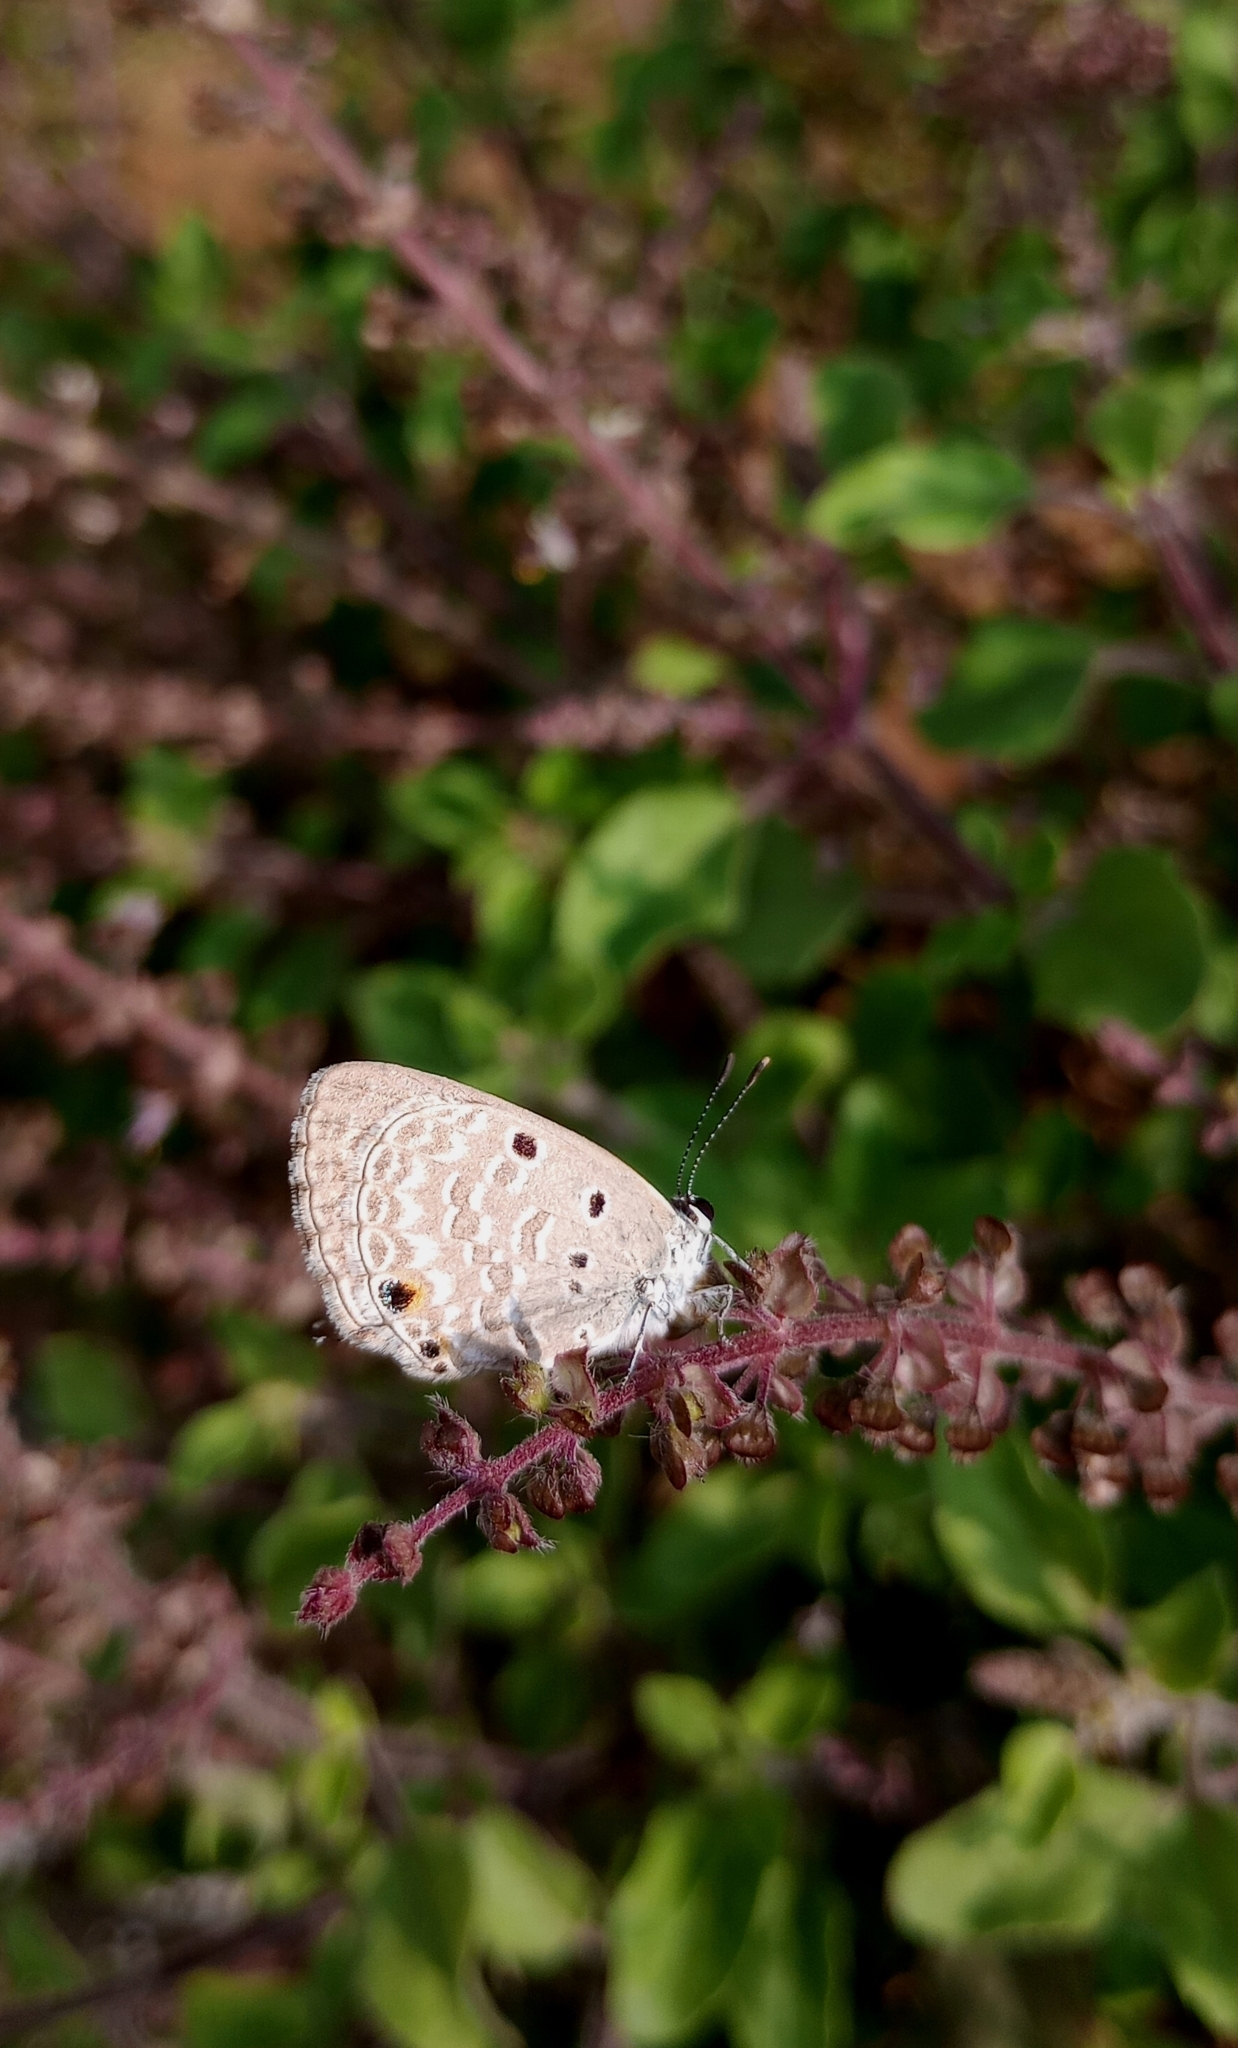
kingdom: Animalia
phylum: Arthropoda
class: Insecta
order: Lepidoptera
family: Lycaenidae
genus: Luthrodes
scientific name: Luthrodes pandava
